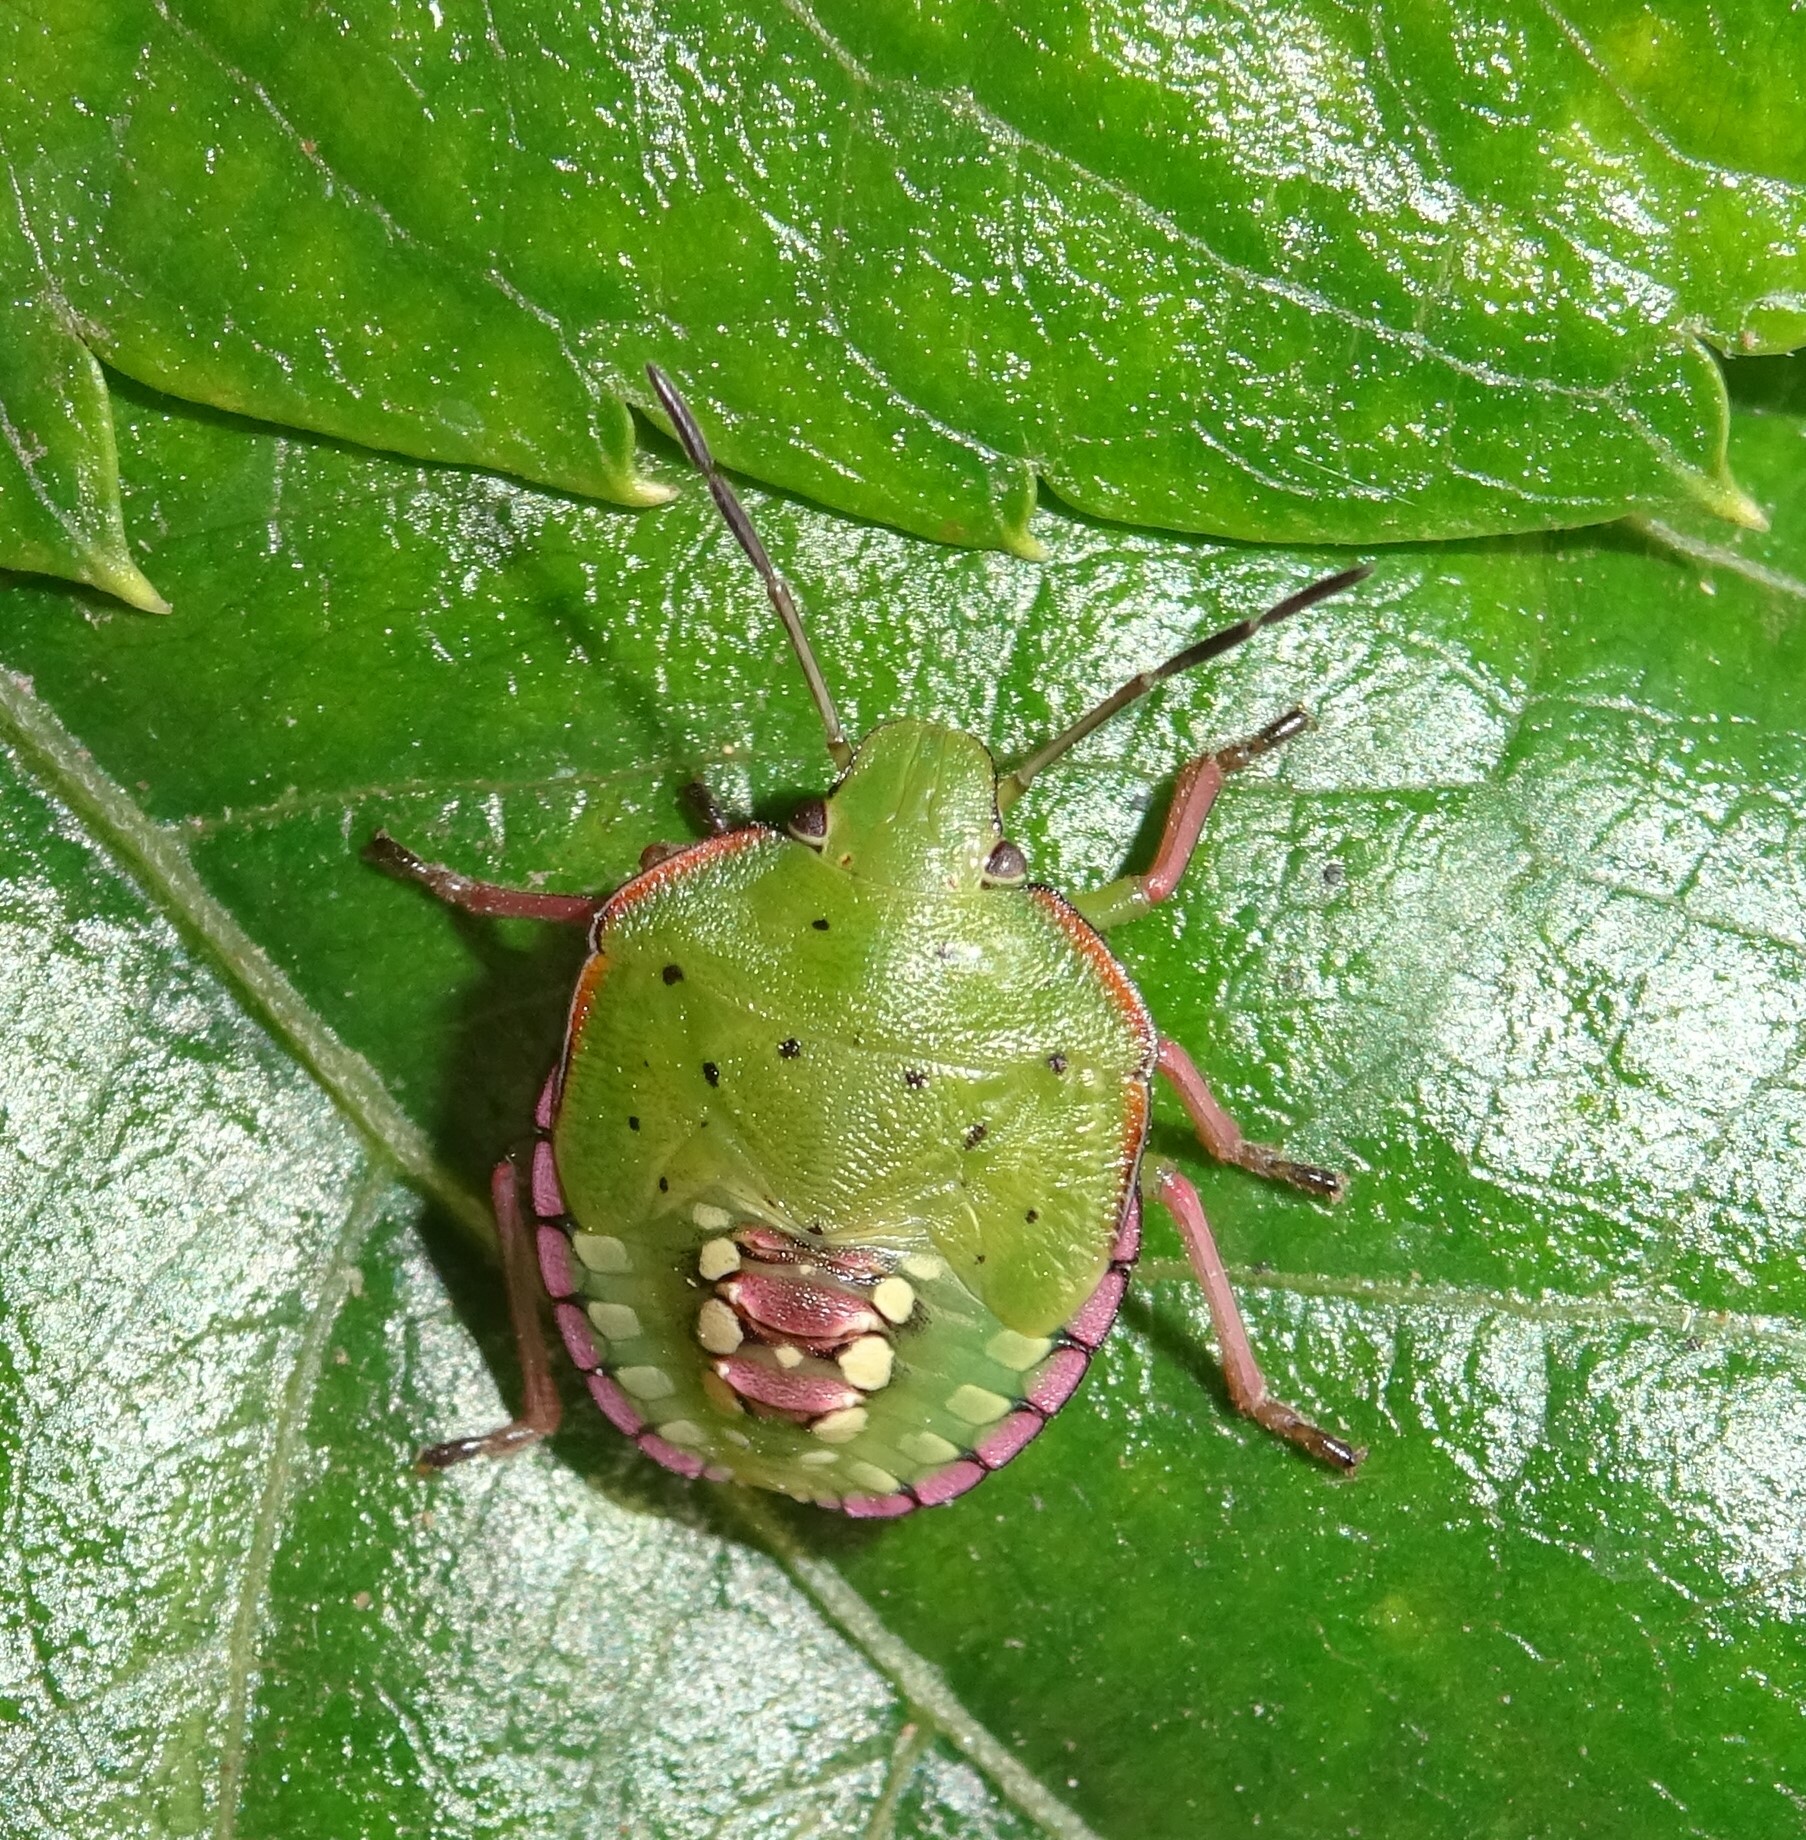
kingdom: Animalia
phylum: Arthropoda
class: Insecta
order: Hemiptera
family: Pentatomidae
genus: Nezara
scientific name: Nezara viridula
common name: Southern green stink bug
